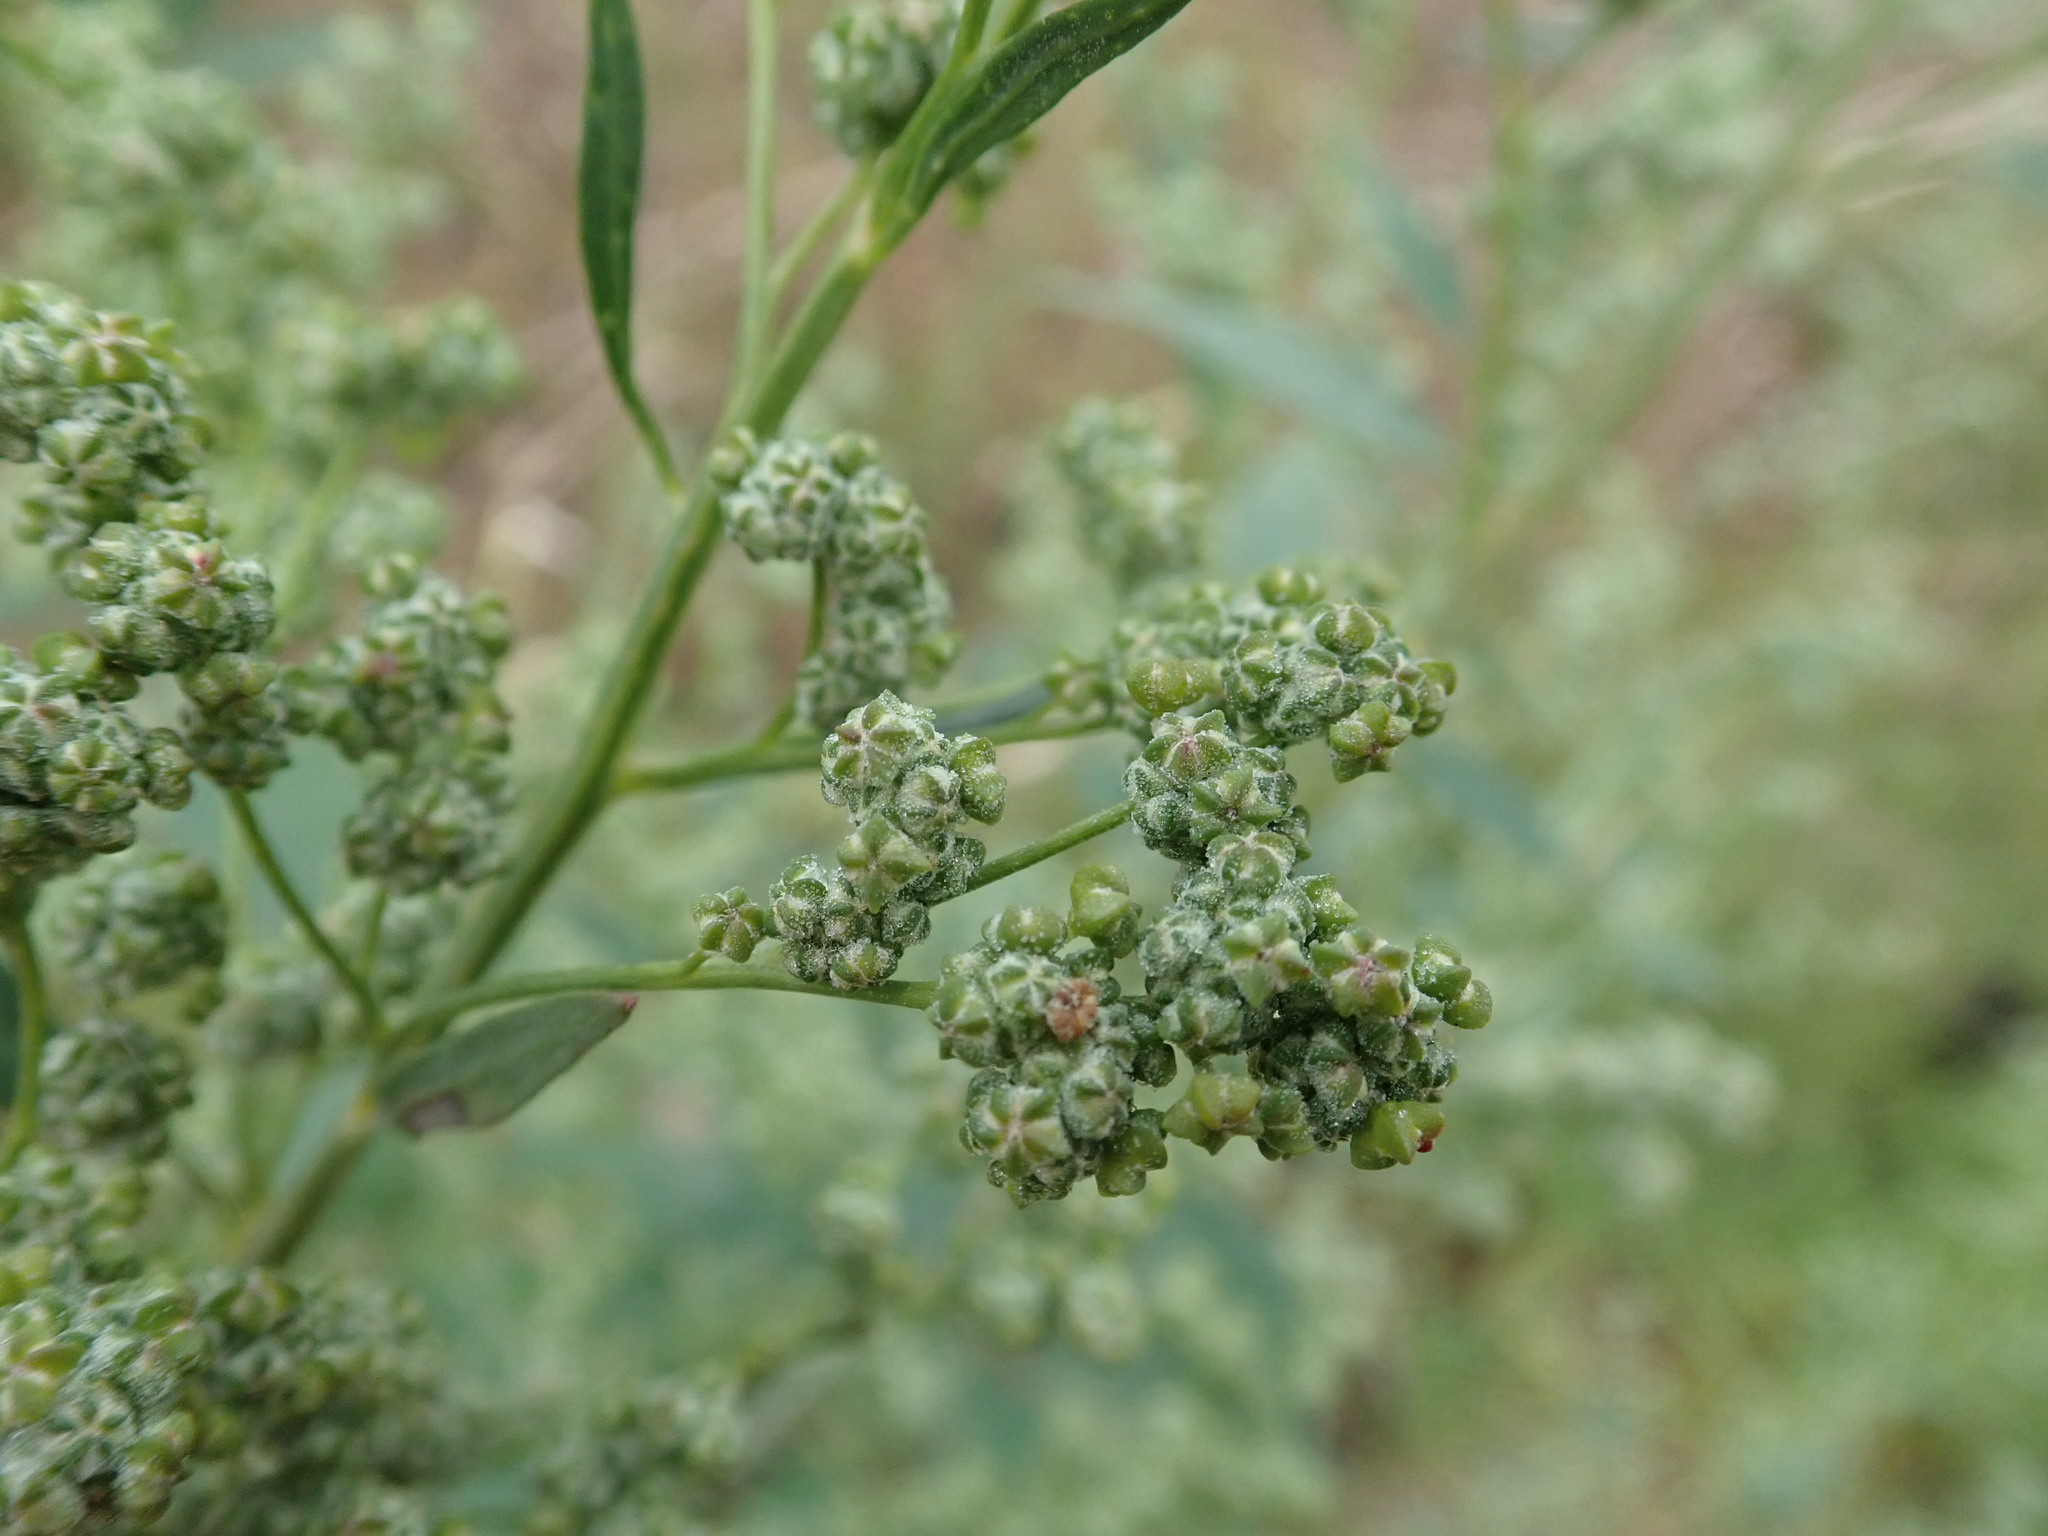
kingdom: Plantae
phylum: Tracheophyta
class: Magnoliopsida
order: Caryophyllales
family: Amaranthaceae
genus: Chenopodium
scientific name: Chenopodium album
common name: Fat-hen
